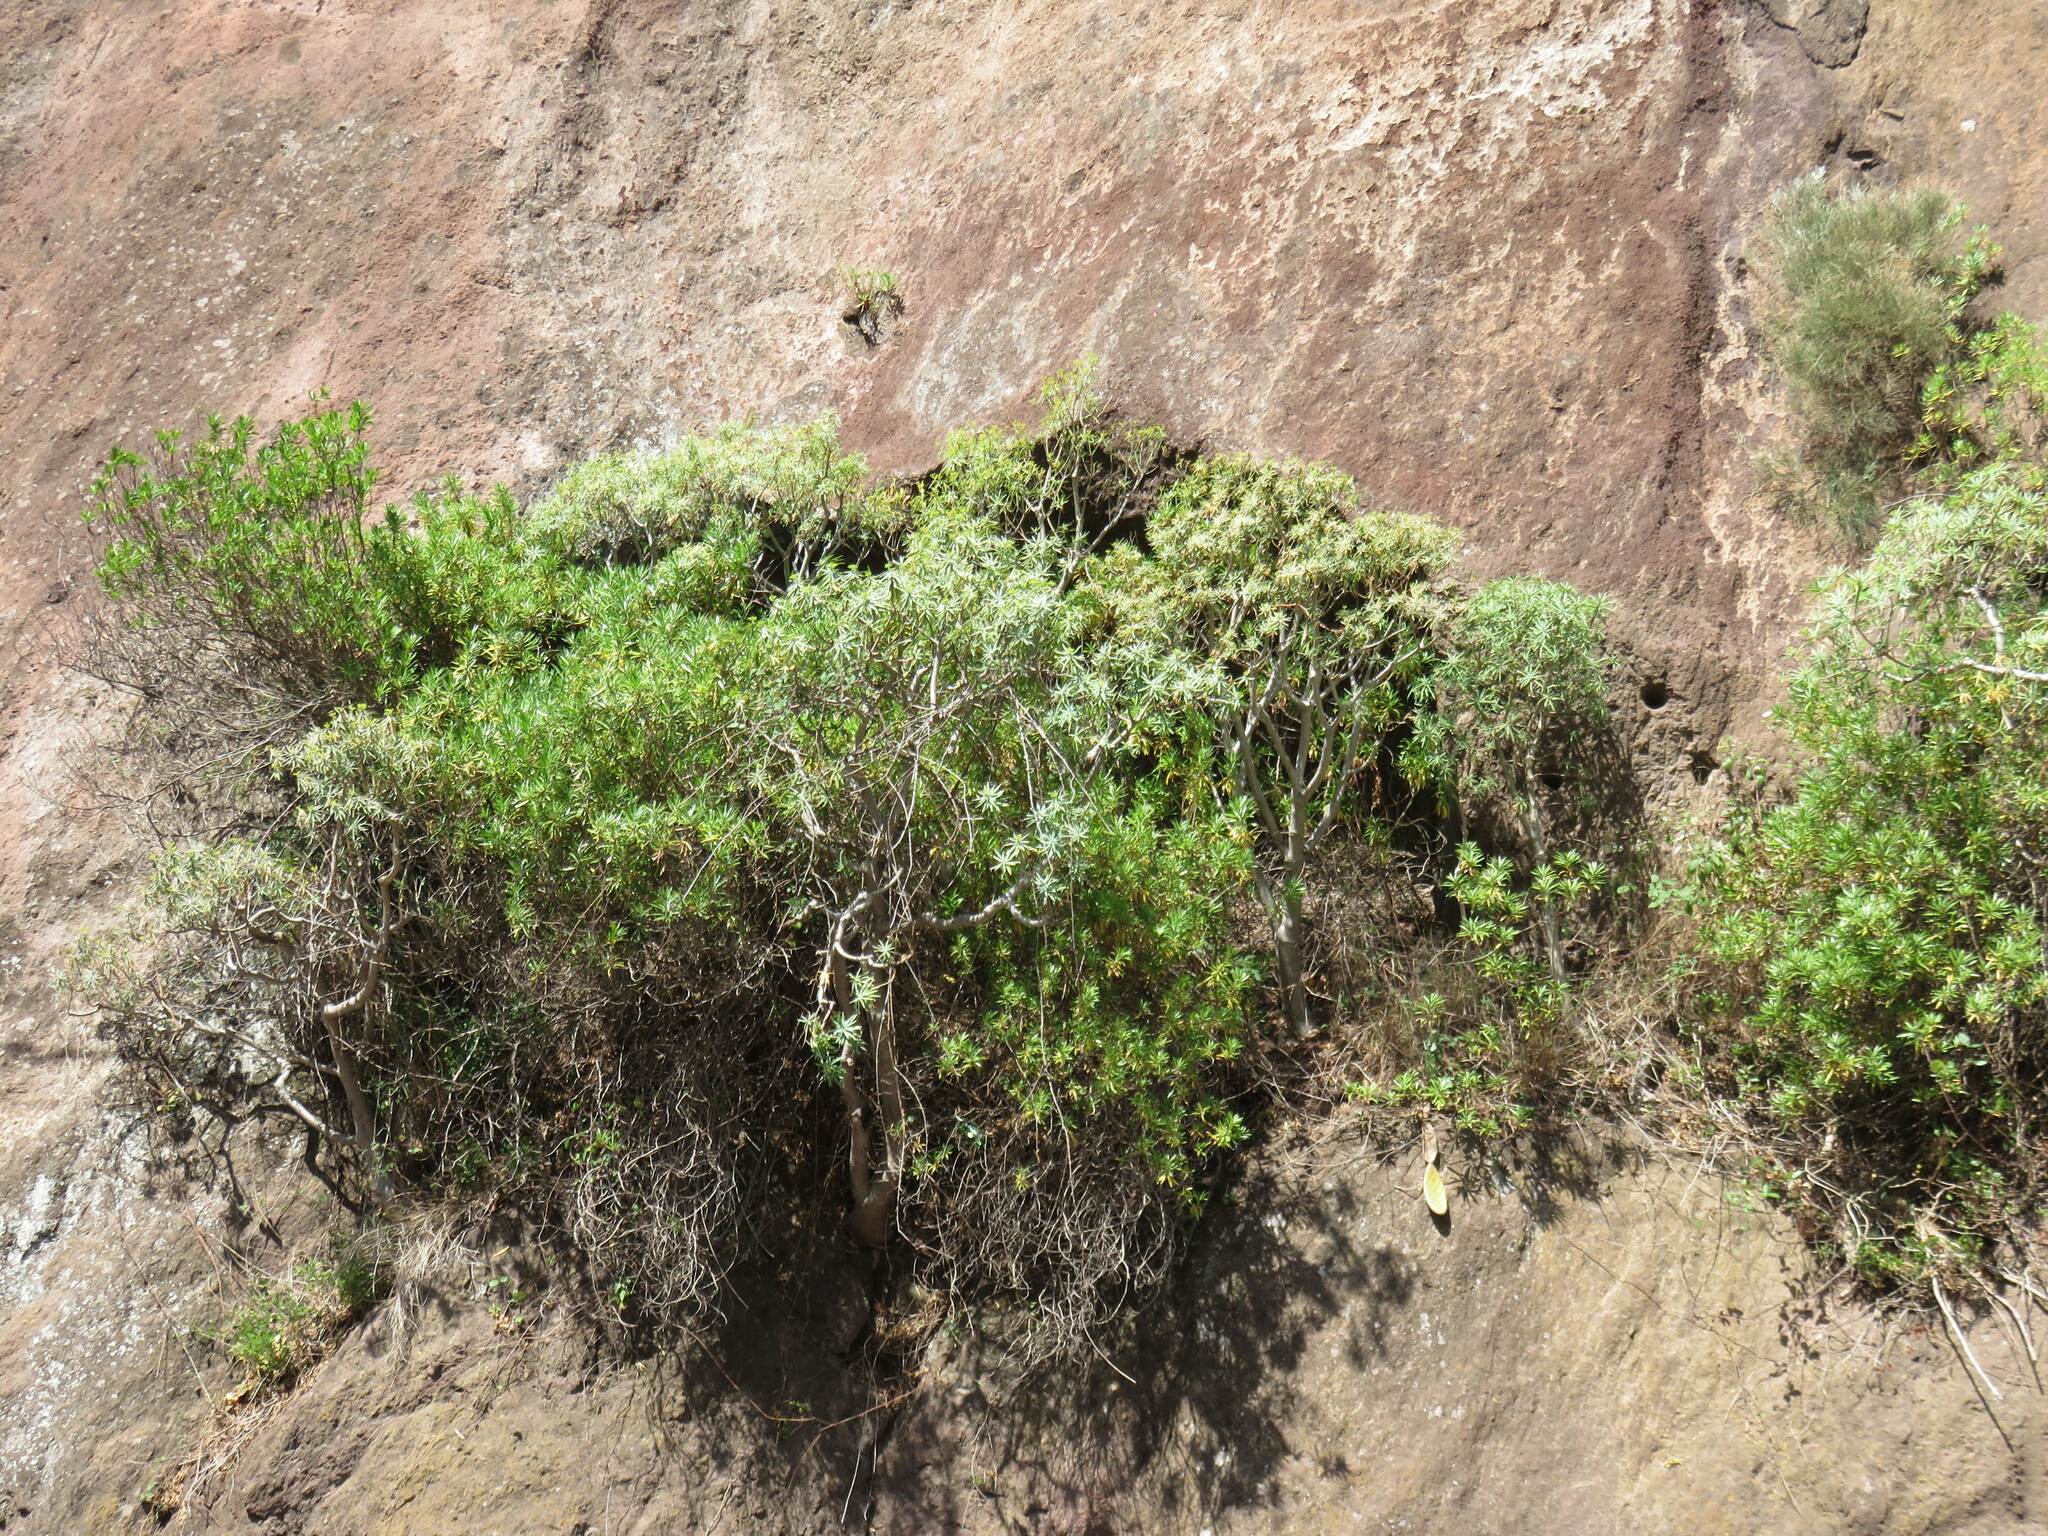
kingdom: Plantae
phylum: Tracheophyta
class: Magnoliopsida
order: Malpighiales
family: Euphorbiaceae
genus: Euphorbia
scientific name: Euphorbia piscatoria
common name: Fish-stunning spurge
